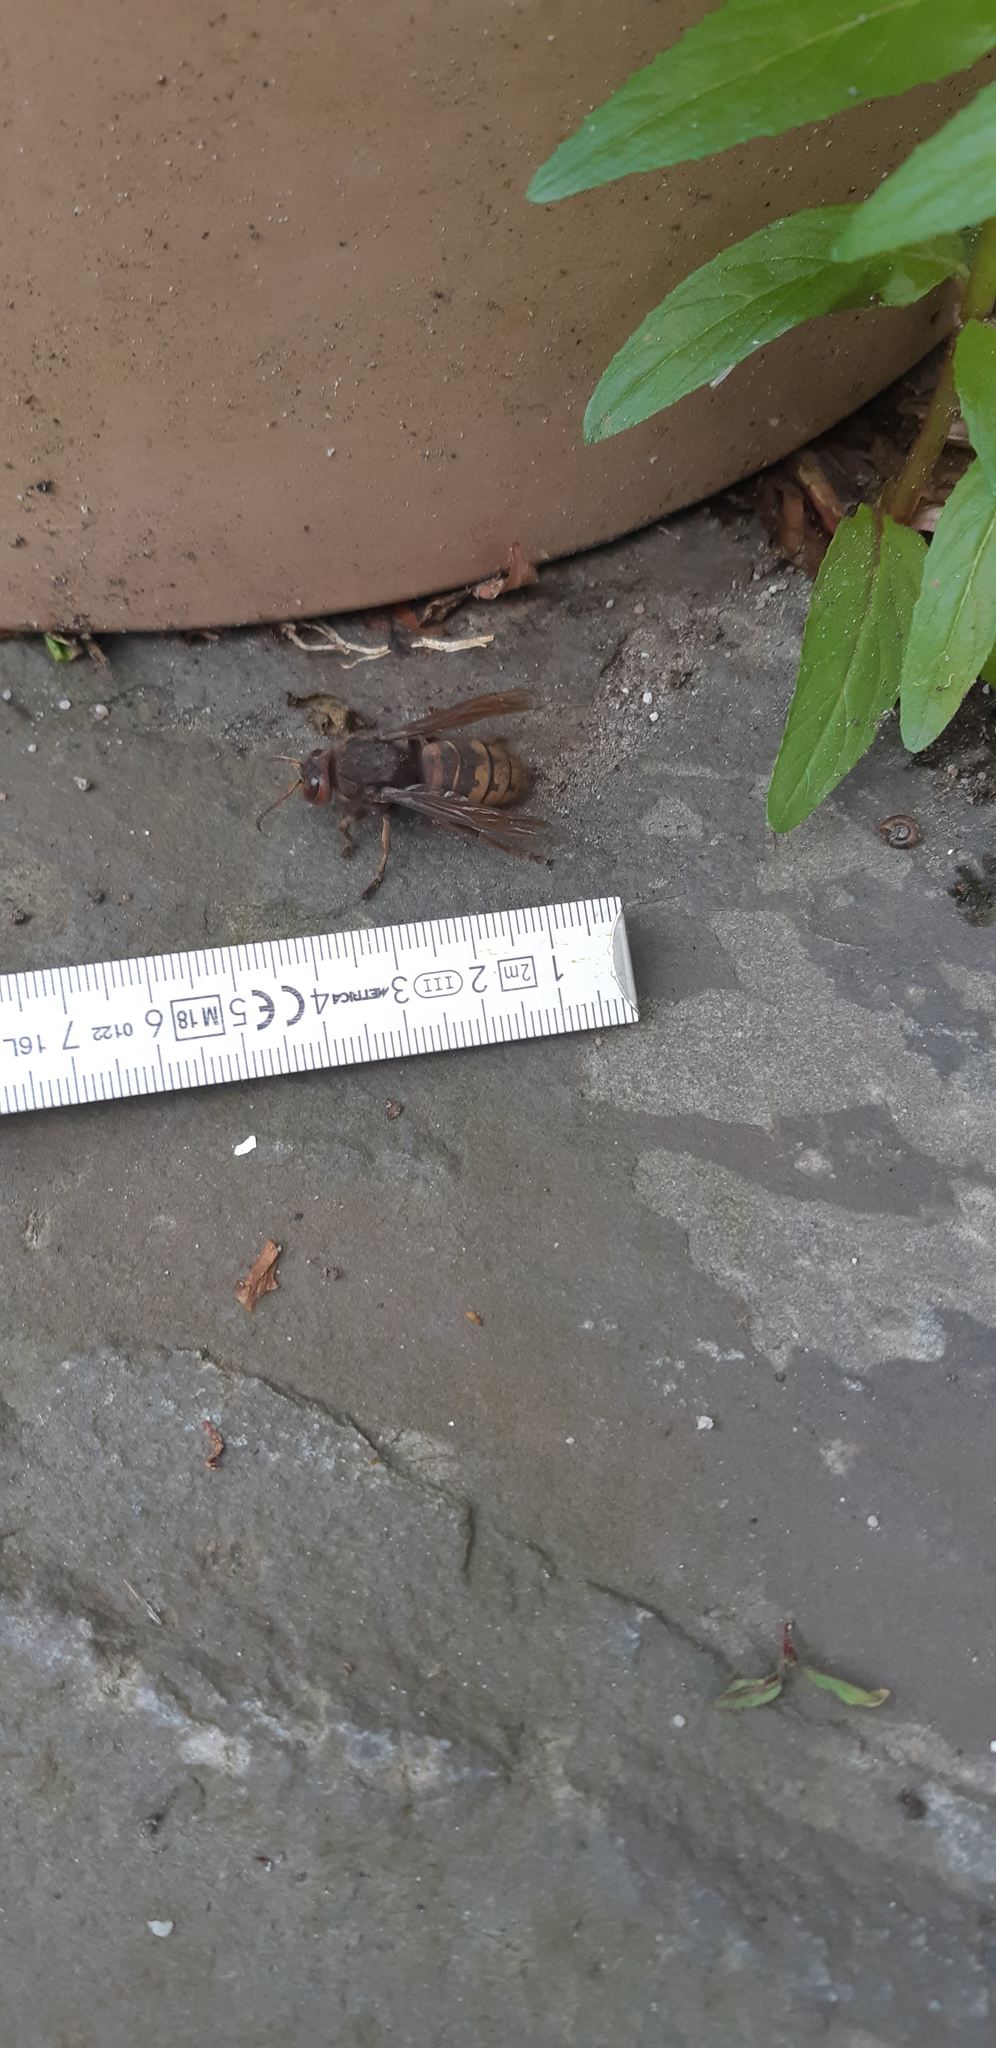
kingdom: Animalia
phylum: Arthropoda
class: Insecta
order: Hymenoptera
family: Vespidae
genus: Vespa
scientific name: Vespa crabro
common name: Hornet
